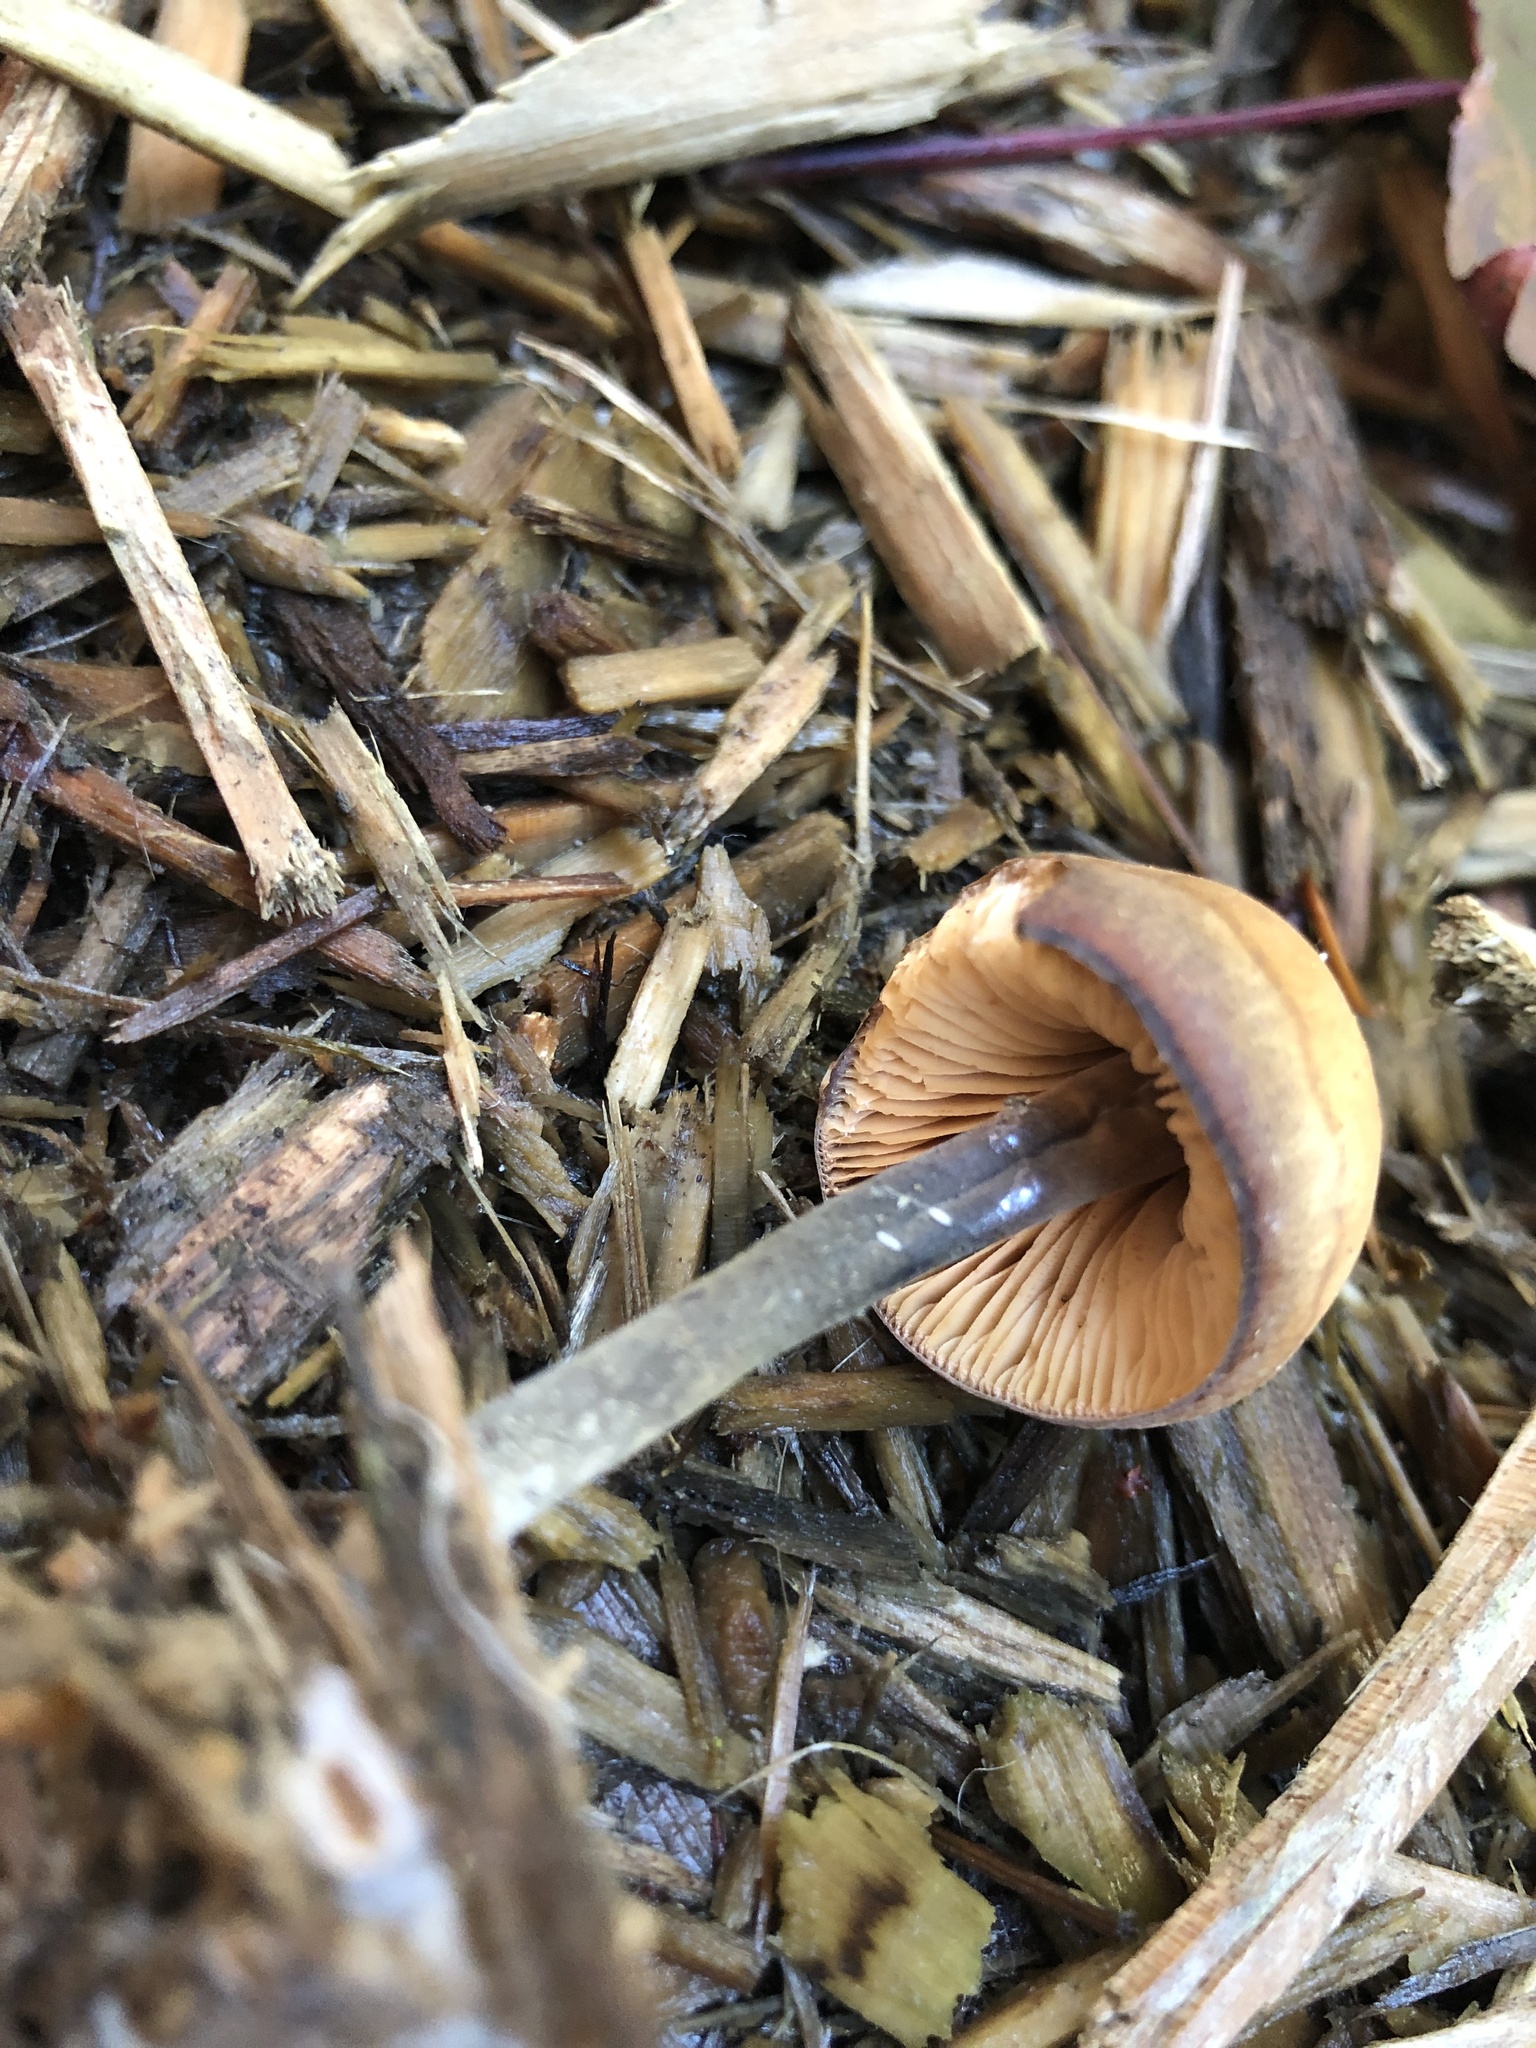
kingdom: Fungi
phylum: Basidiomycota
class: Agaricomycetes
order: Agaricales
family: Macrocystidiaceae
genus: Macrocystidia
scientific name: Macrocystidia cucumis
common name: Cucumber cap
